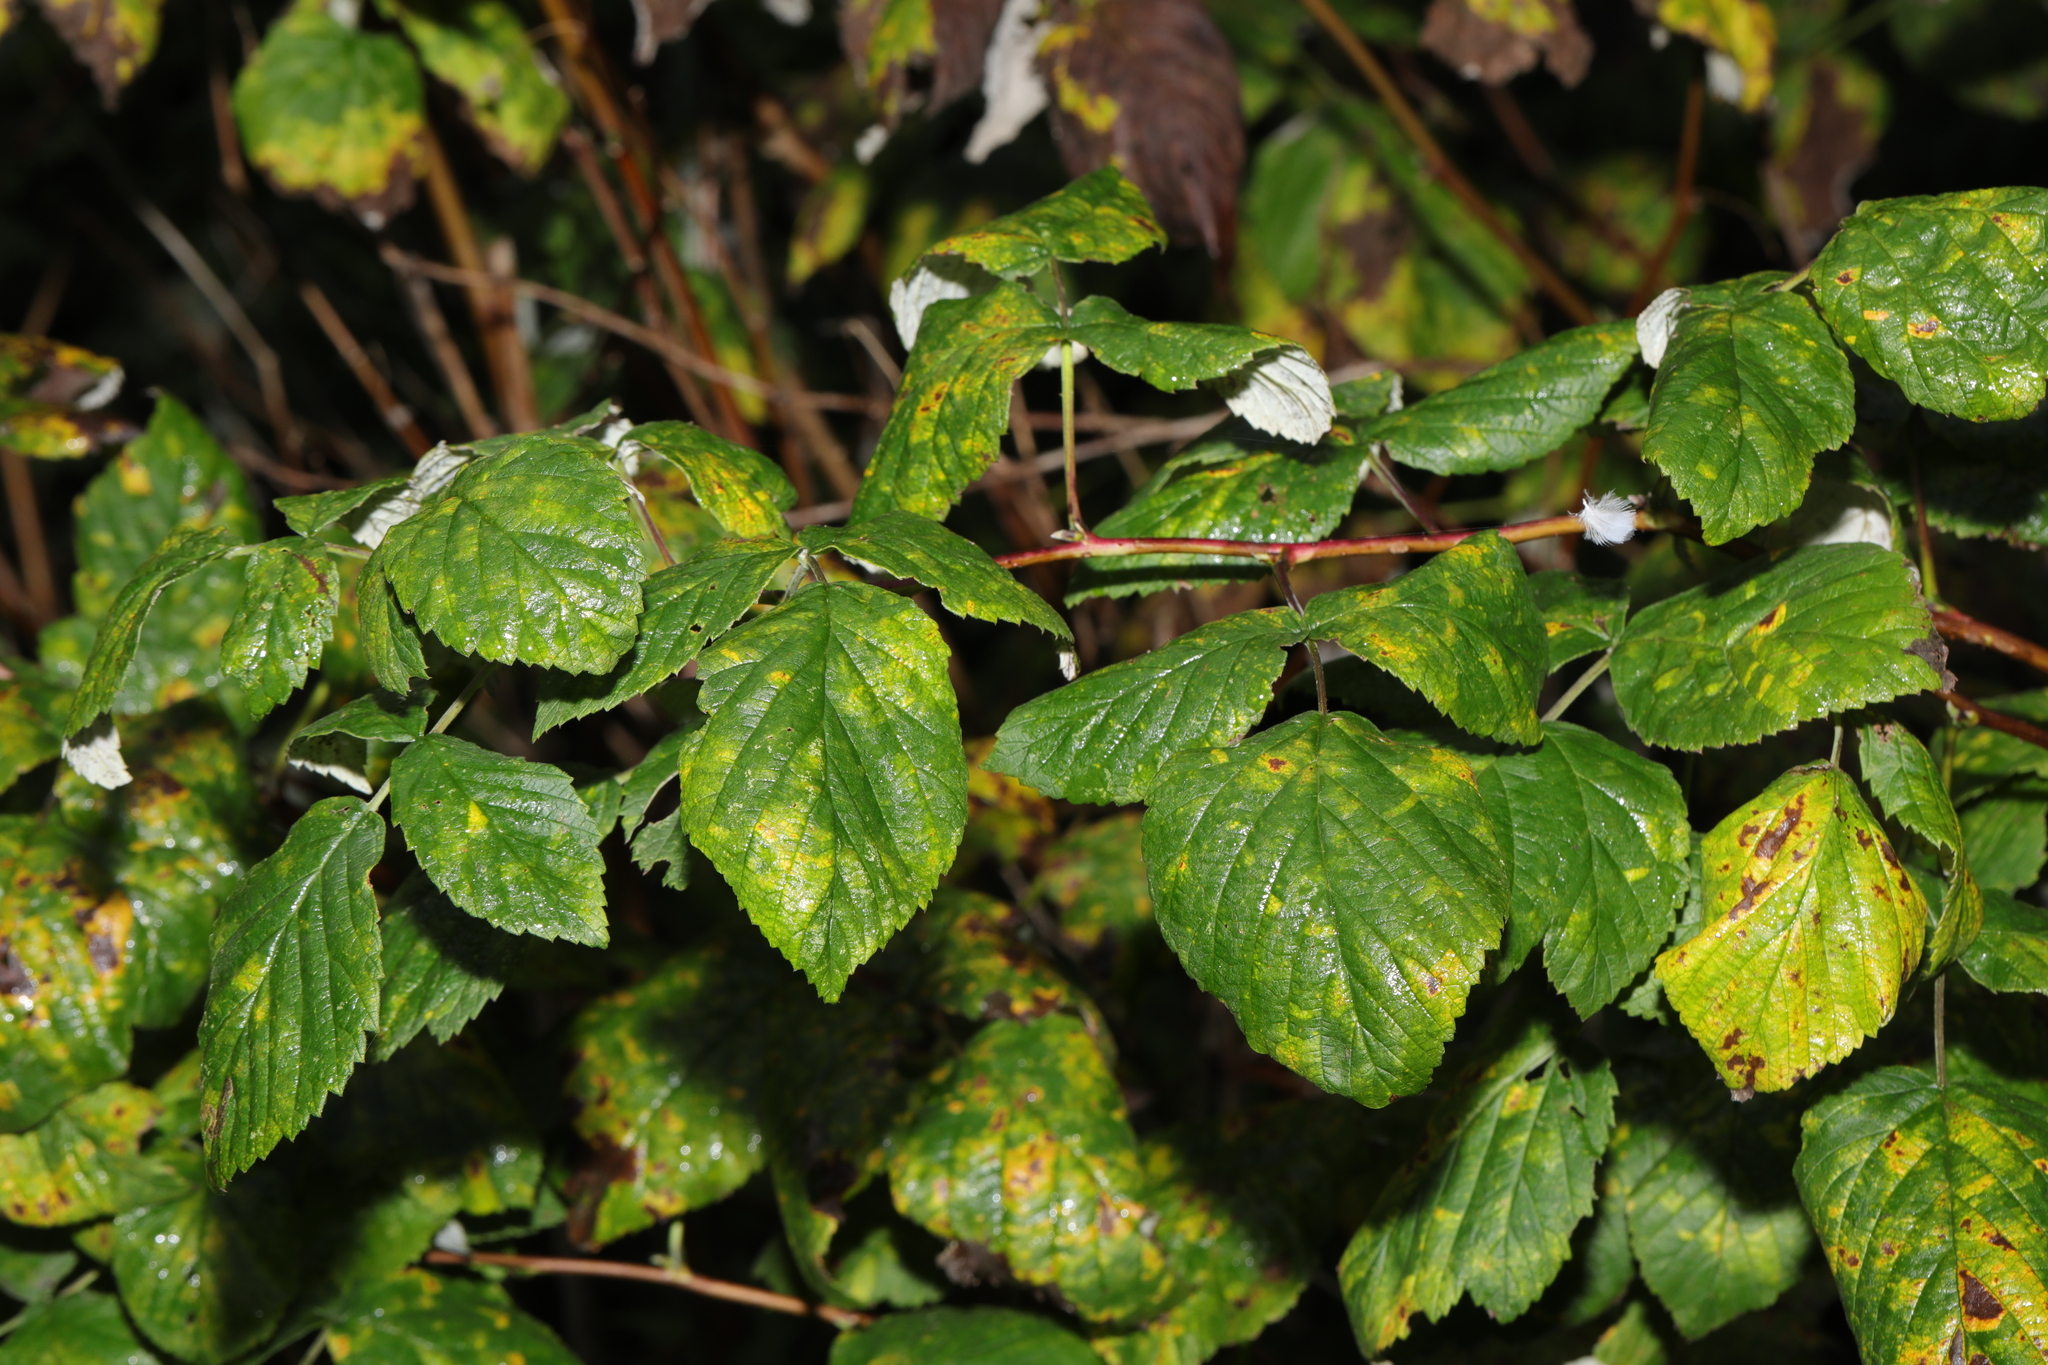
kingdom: Plantae
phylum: Tracheophyta
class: Magnoliopsida
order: Rosales
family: Rosaceae
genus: Rubus
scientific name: Rubus idaeus
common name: Raspberry
